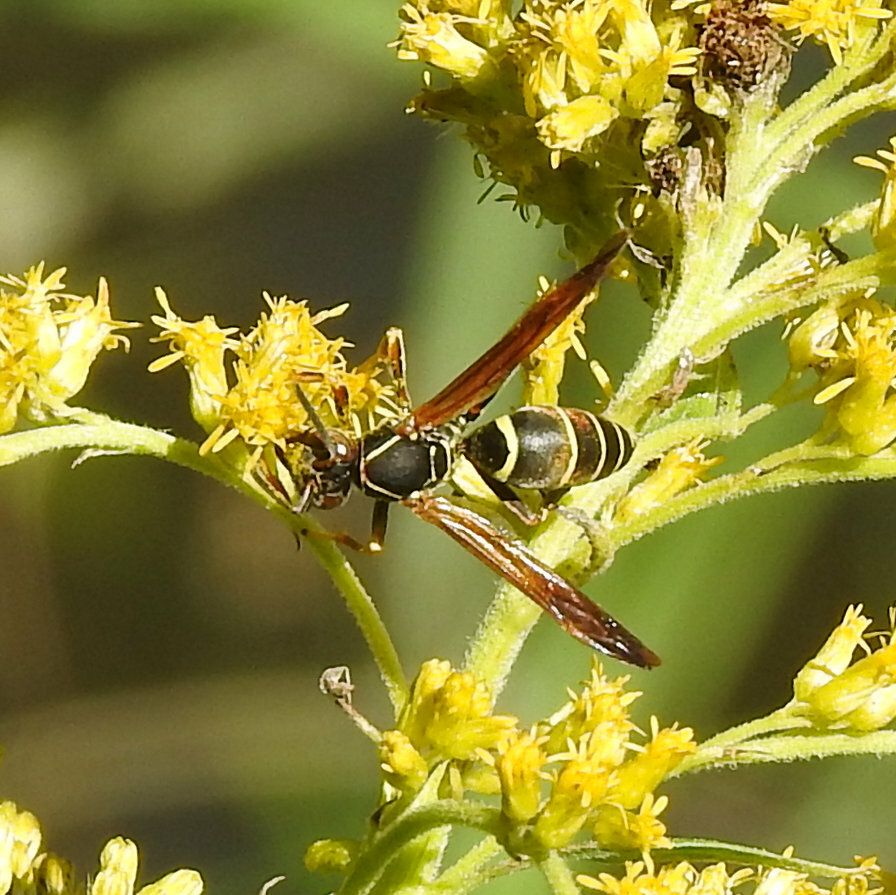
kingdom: Animalia
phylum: Arthropoda
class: Insecta
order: Hymenoptera
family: Eumenidae
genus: Polistes
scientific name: Polistes fuscatus
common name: Dark paper wasp
